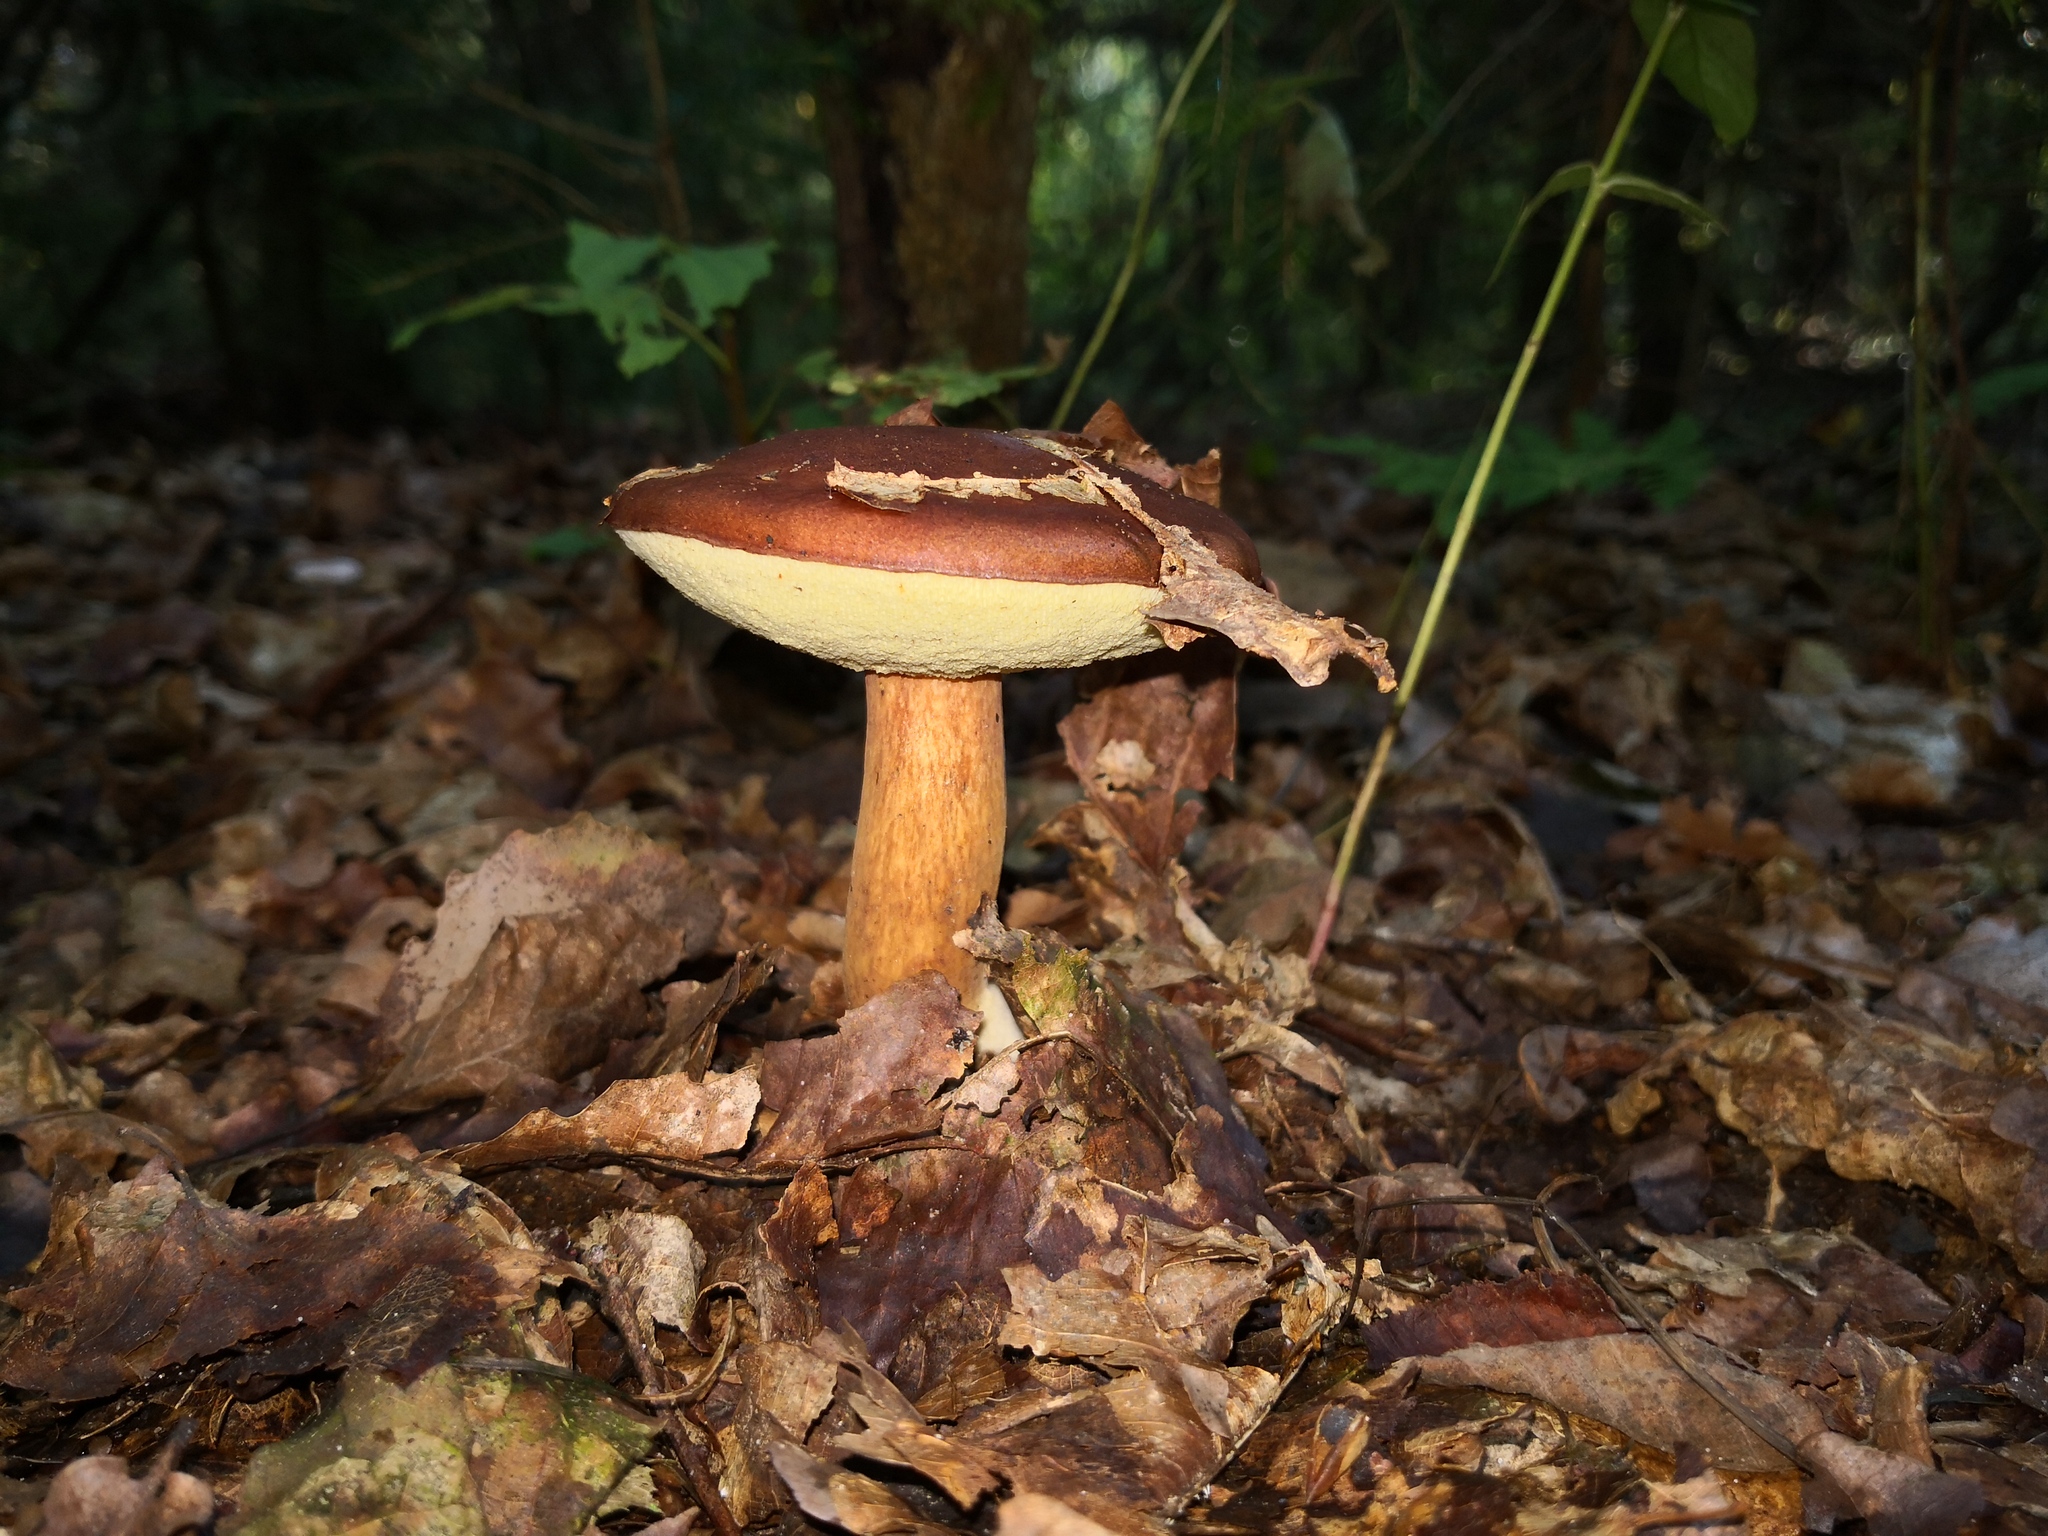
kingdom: Fungi
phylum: Basidiomycota
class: Agaricomycetes
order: Boletales
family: Boletaceae
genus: Imleria
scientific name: Imleria badia
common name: Bay bolete
